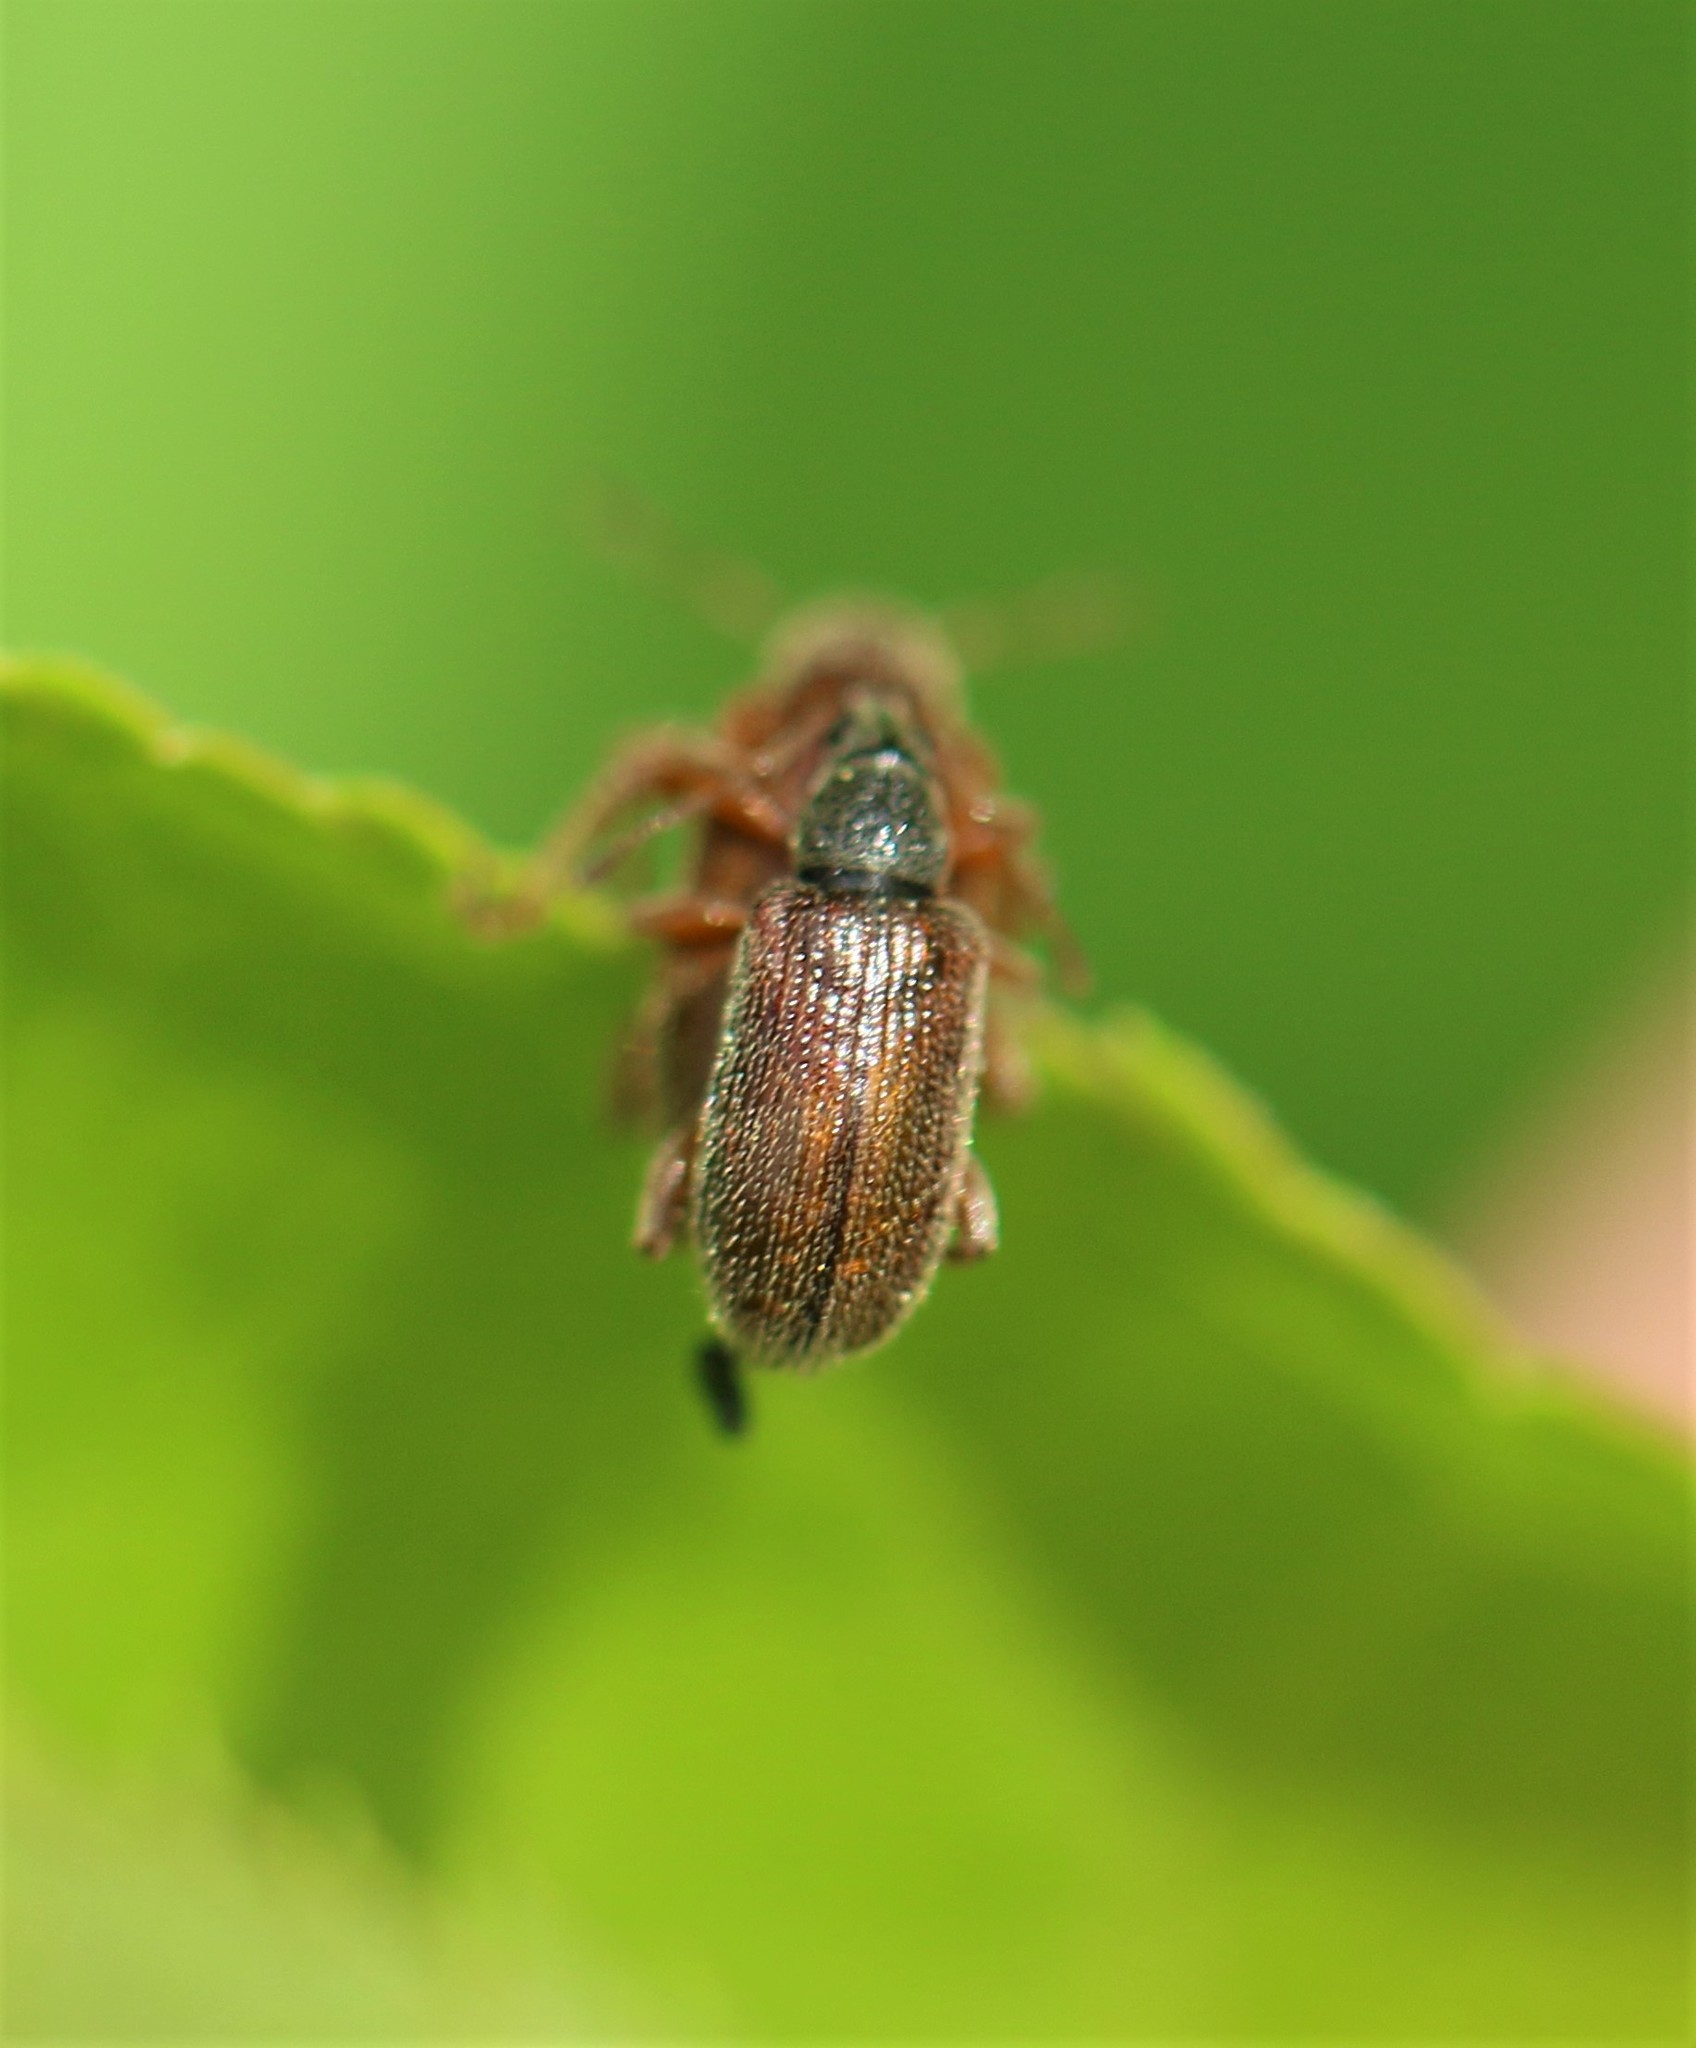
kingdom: Animalia
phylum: Arthropoda
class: Insecta
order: Coleoptera
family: Curculionidae
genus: Phyllobius
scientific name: Phyllobius oblongus
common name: Brown leaf weevil
